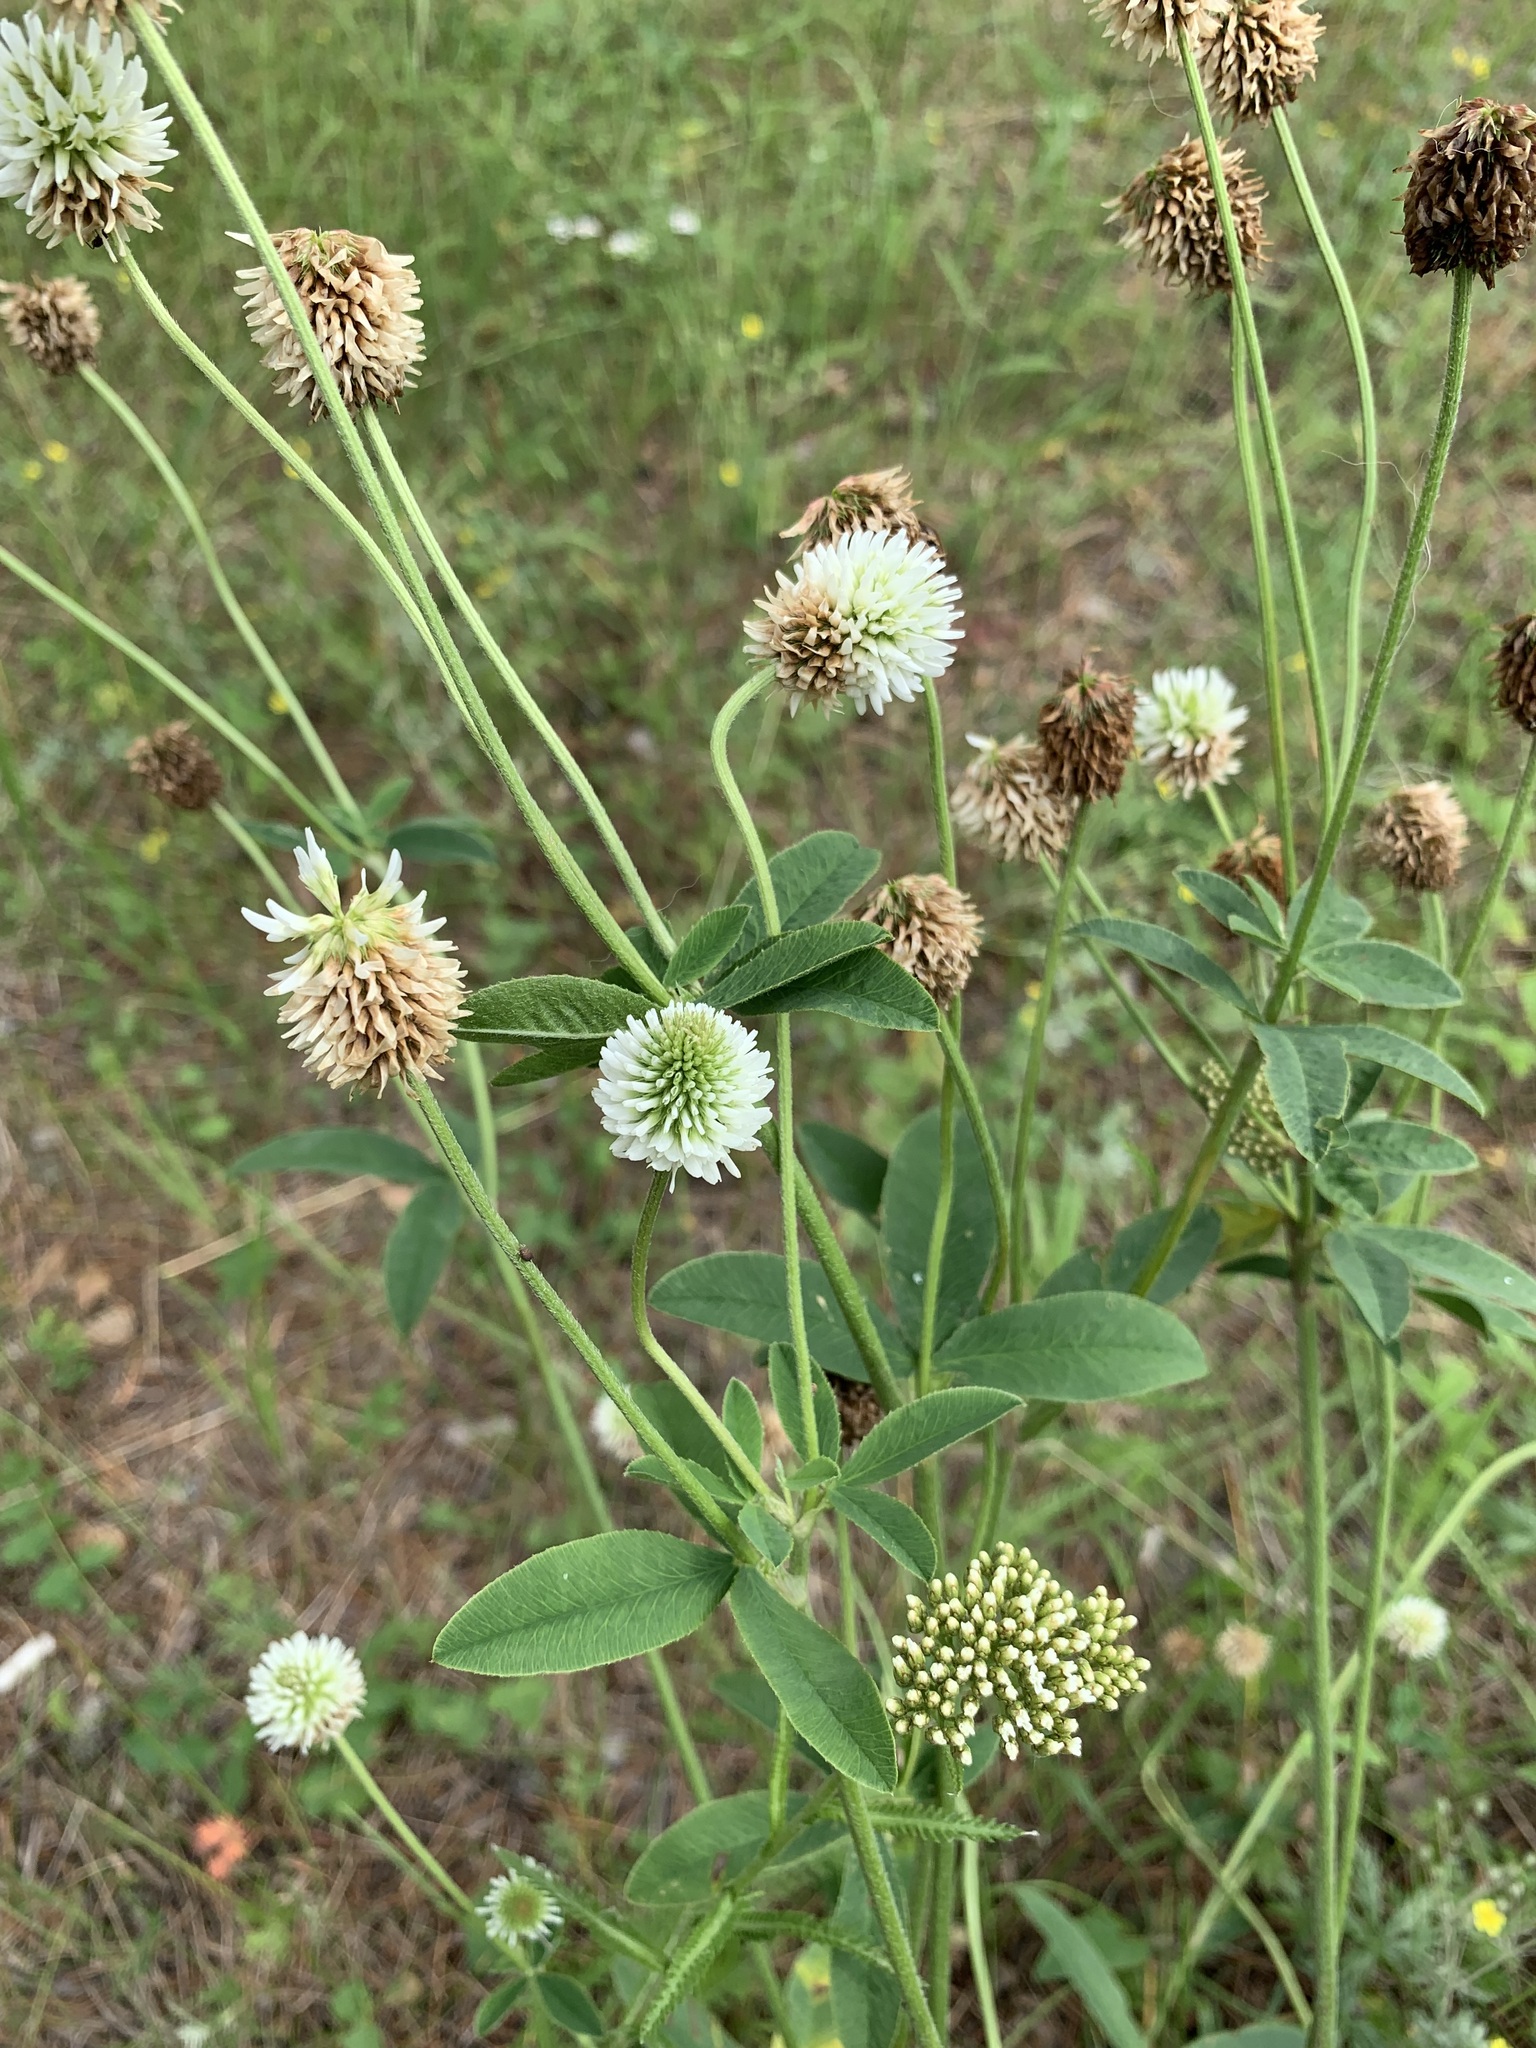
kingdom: Plantae
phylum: Tracheophyta
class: Magnoliopsida
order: Fabales
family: Fabaceae
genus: Trifolium
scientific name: Trifolium montanum
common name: Mountain clover
